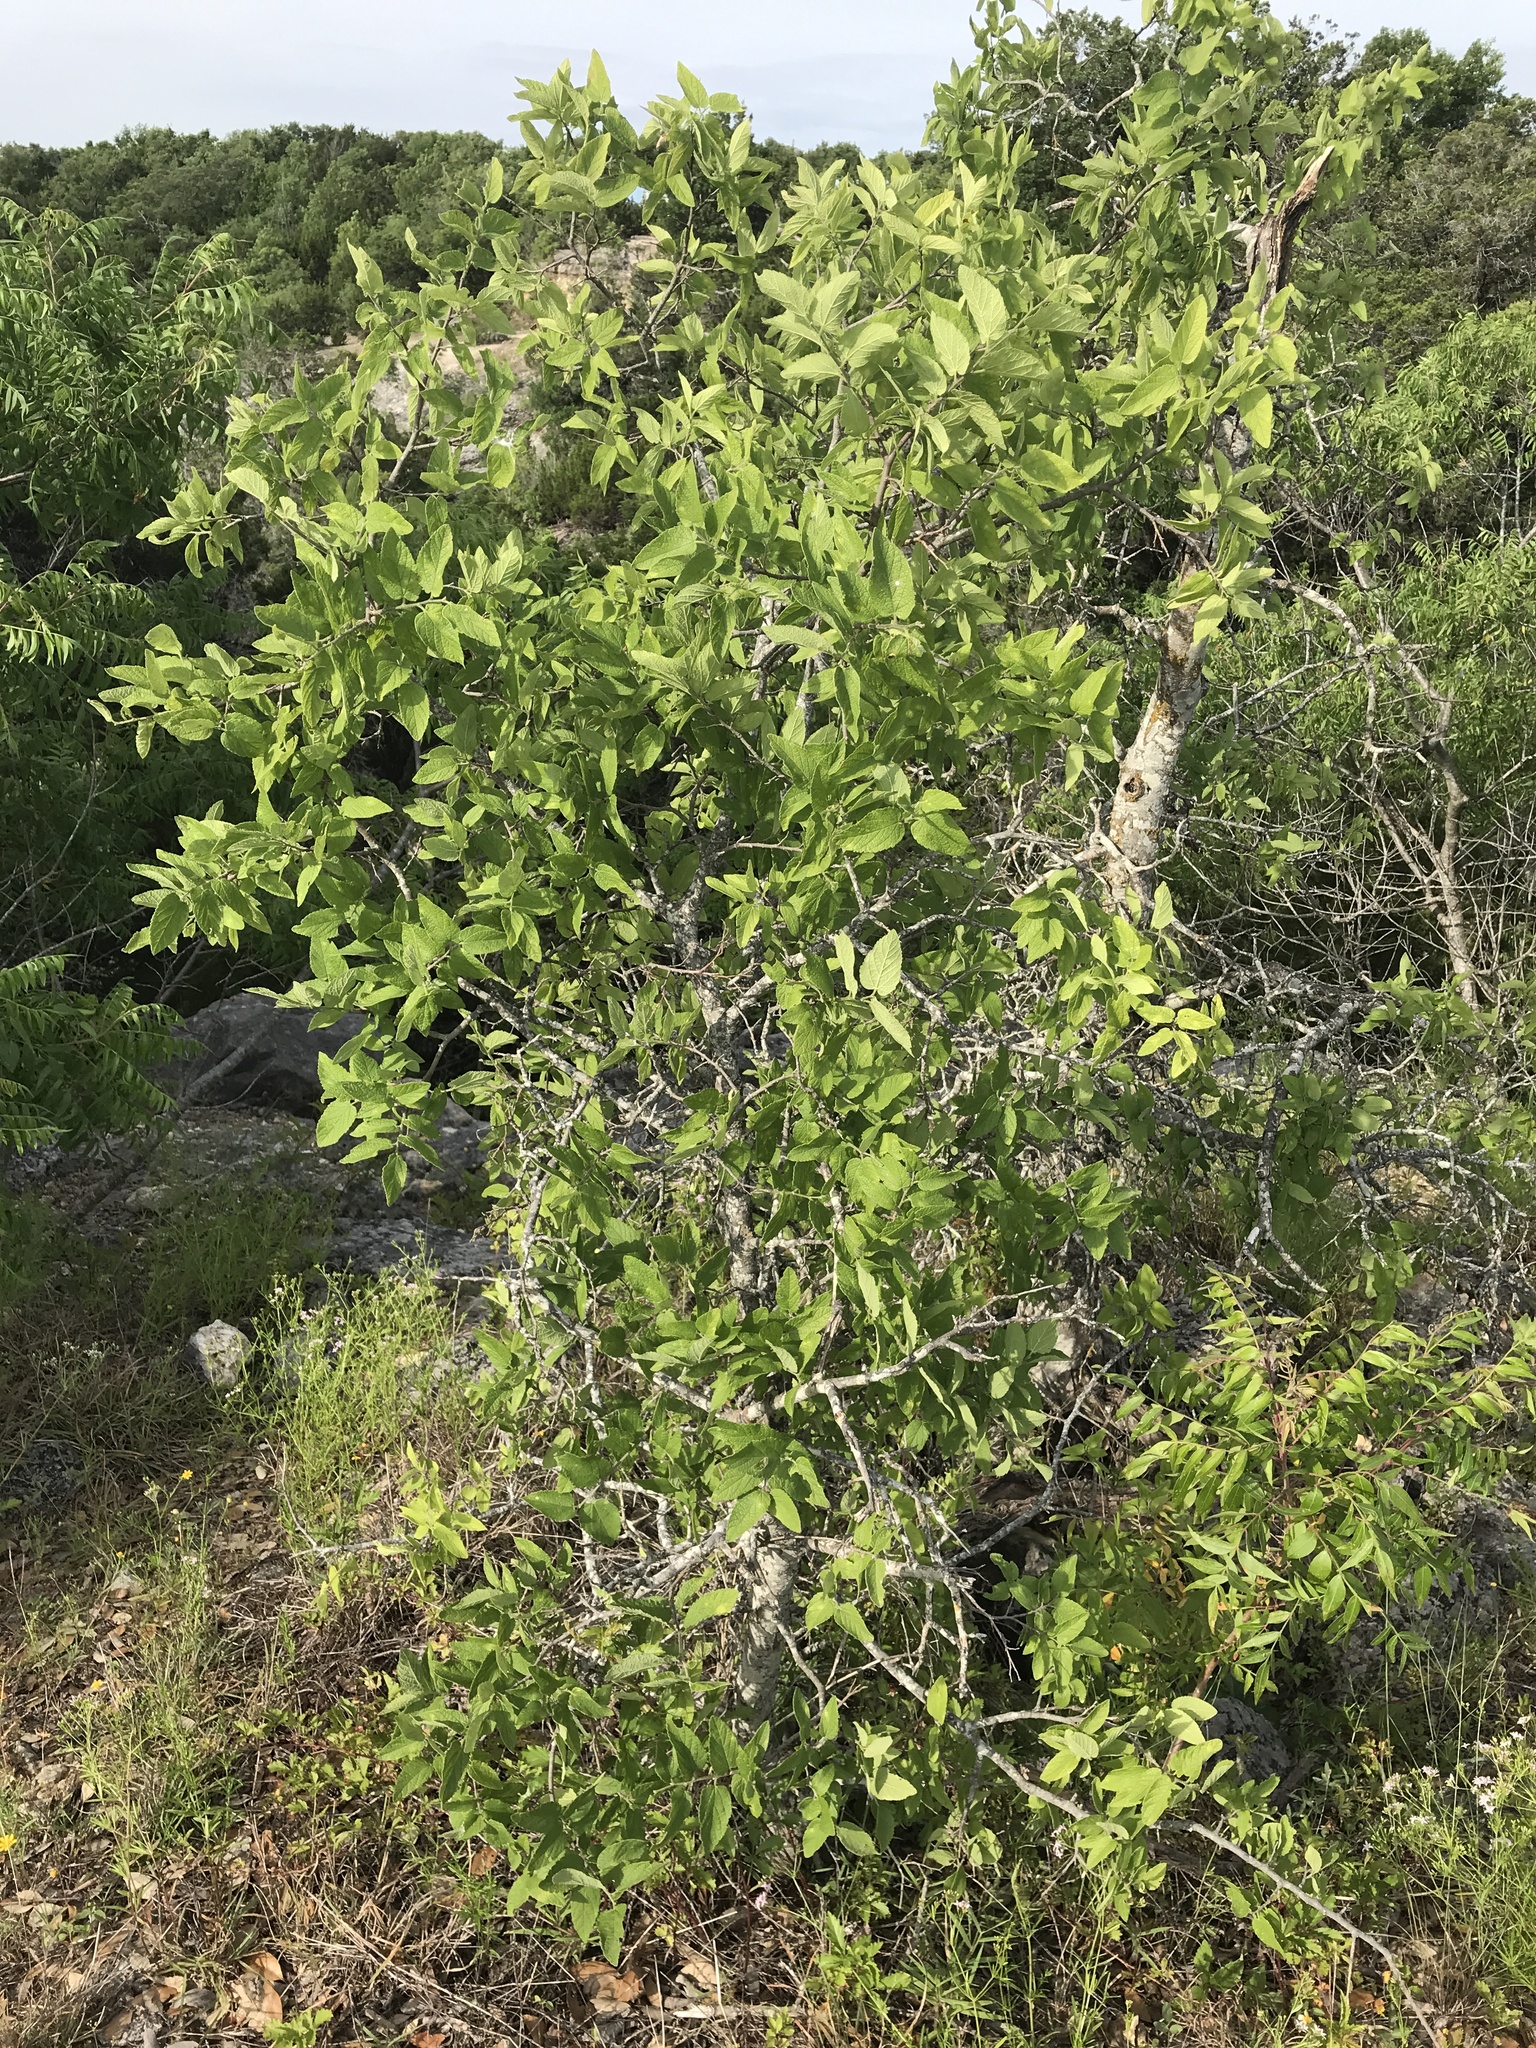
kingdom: Plantae
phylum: Tracheophyta
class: Magnoliopsida
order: Rosales
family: Cannabaceae
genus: Celtis
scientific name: Celtis reticulata
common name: Netleaf hackberry
